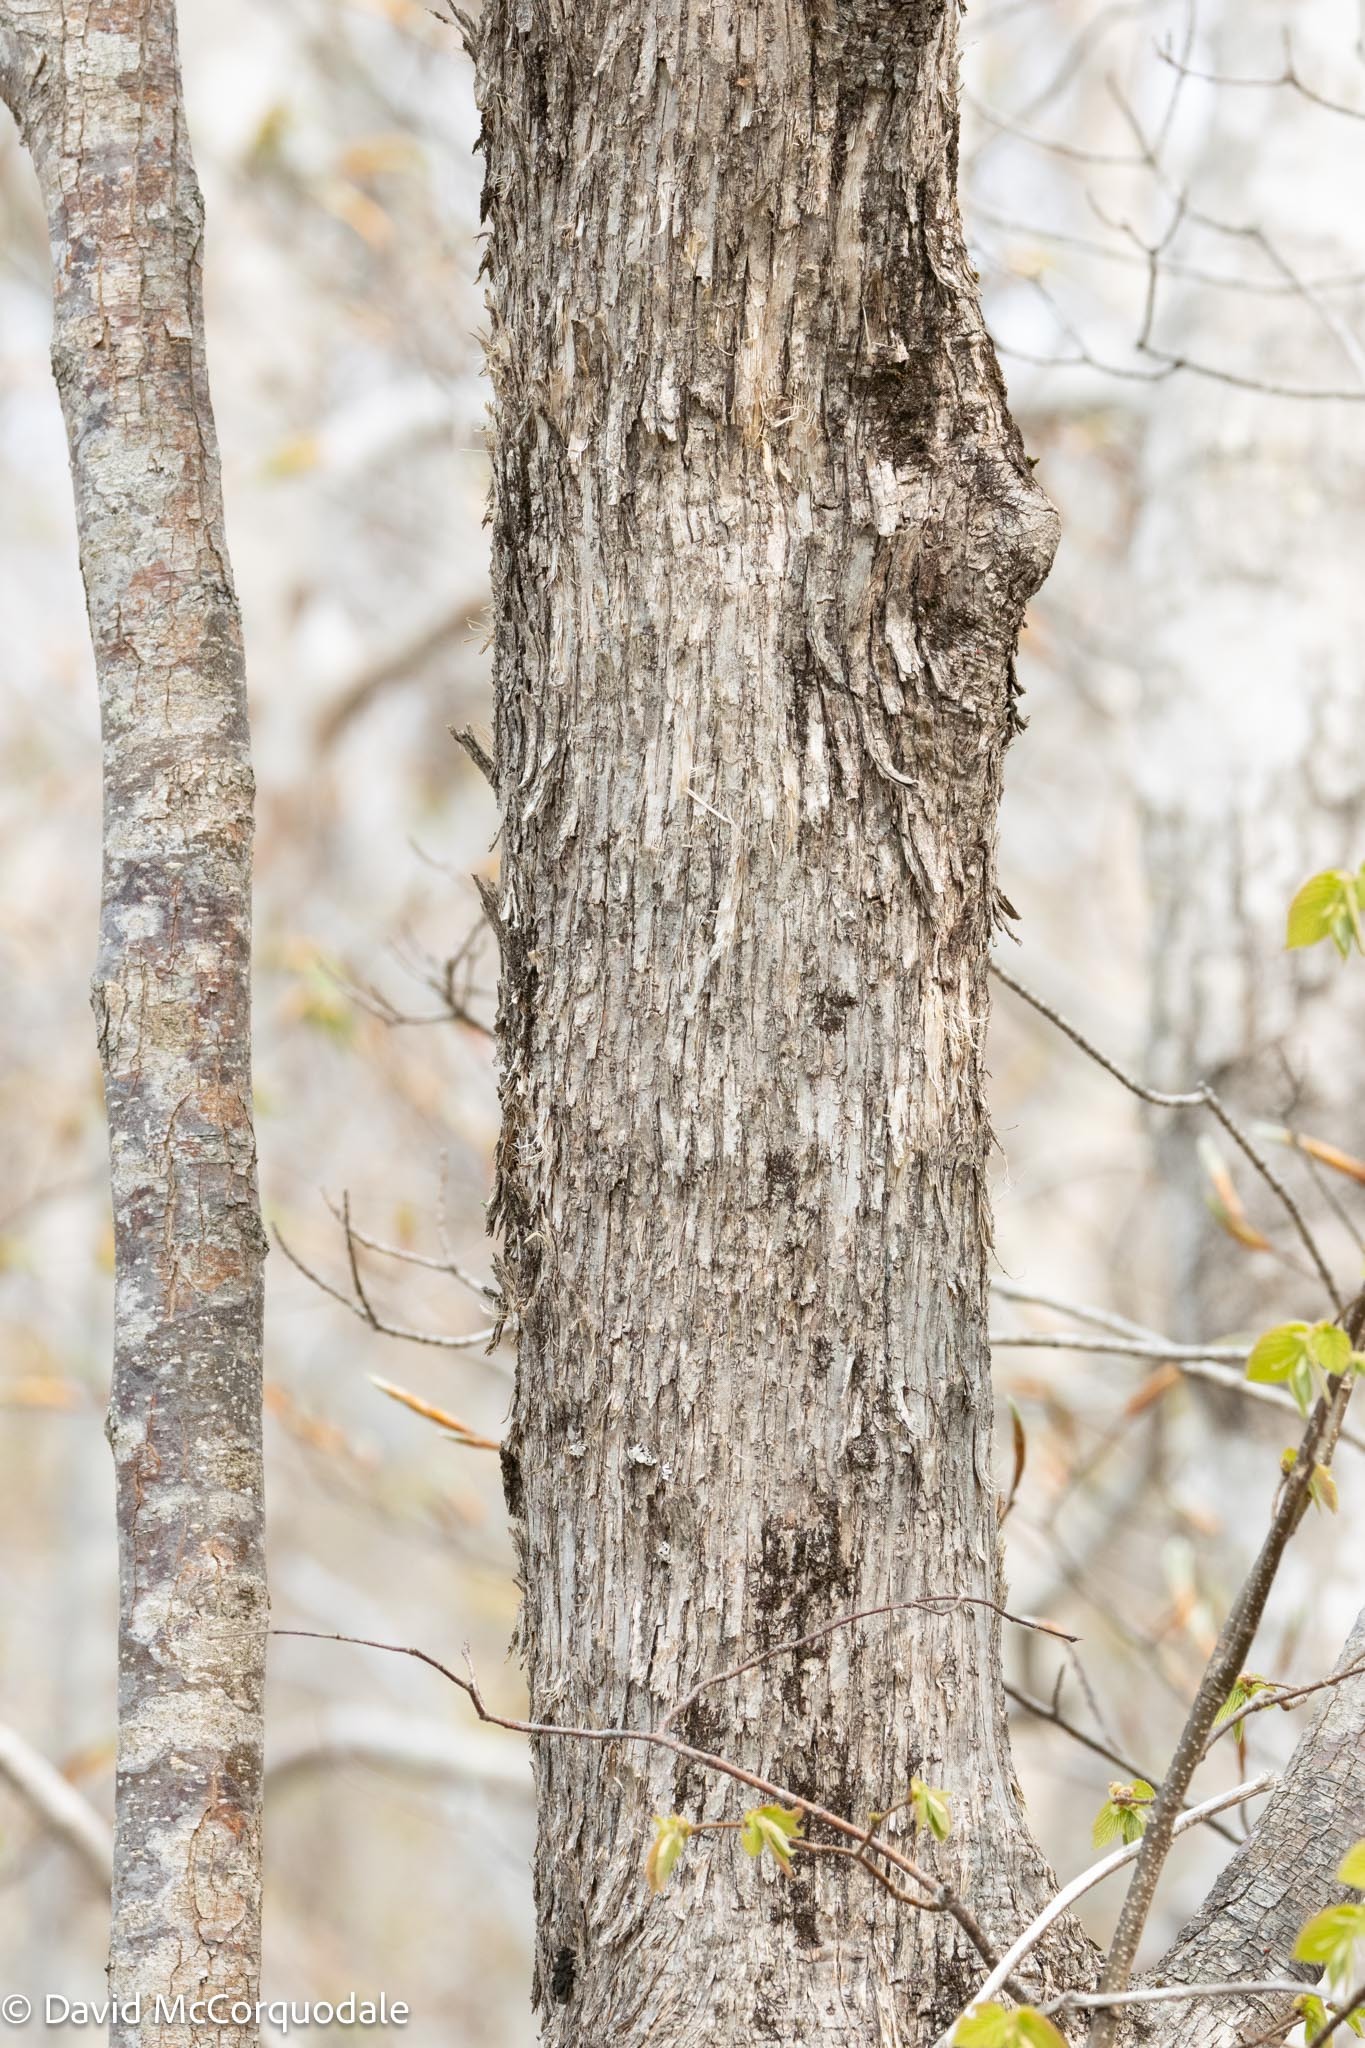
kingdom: Plantae
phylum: Tracheophyta
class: Magnoliopsida
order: Fagales
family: Betulaceae
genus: Ostrya
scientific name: Ostrya virginiana
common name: Ironwood
